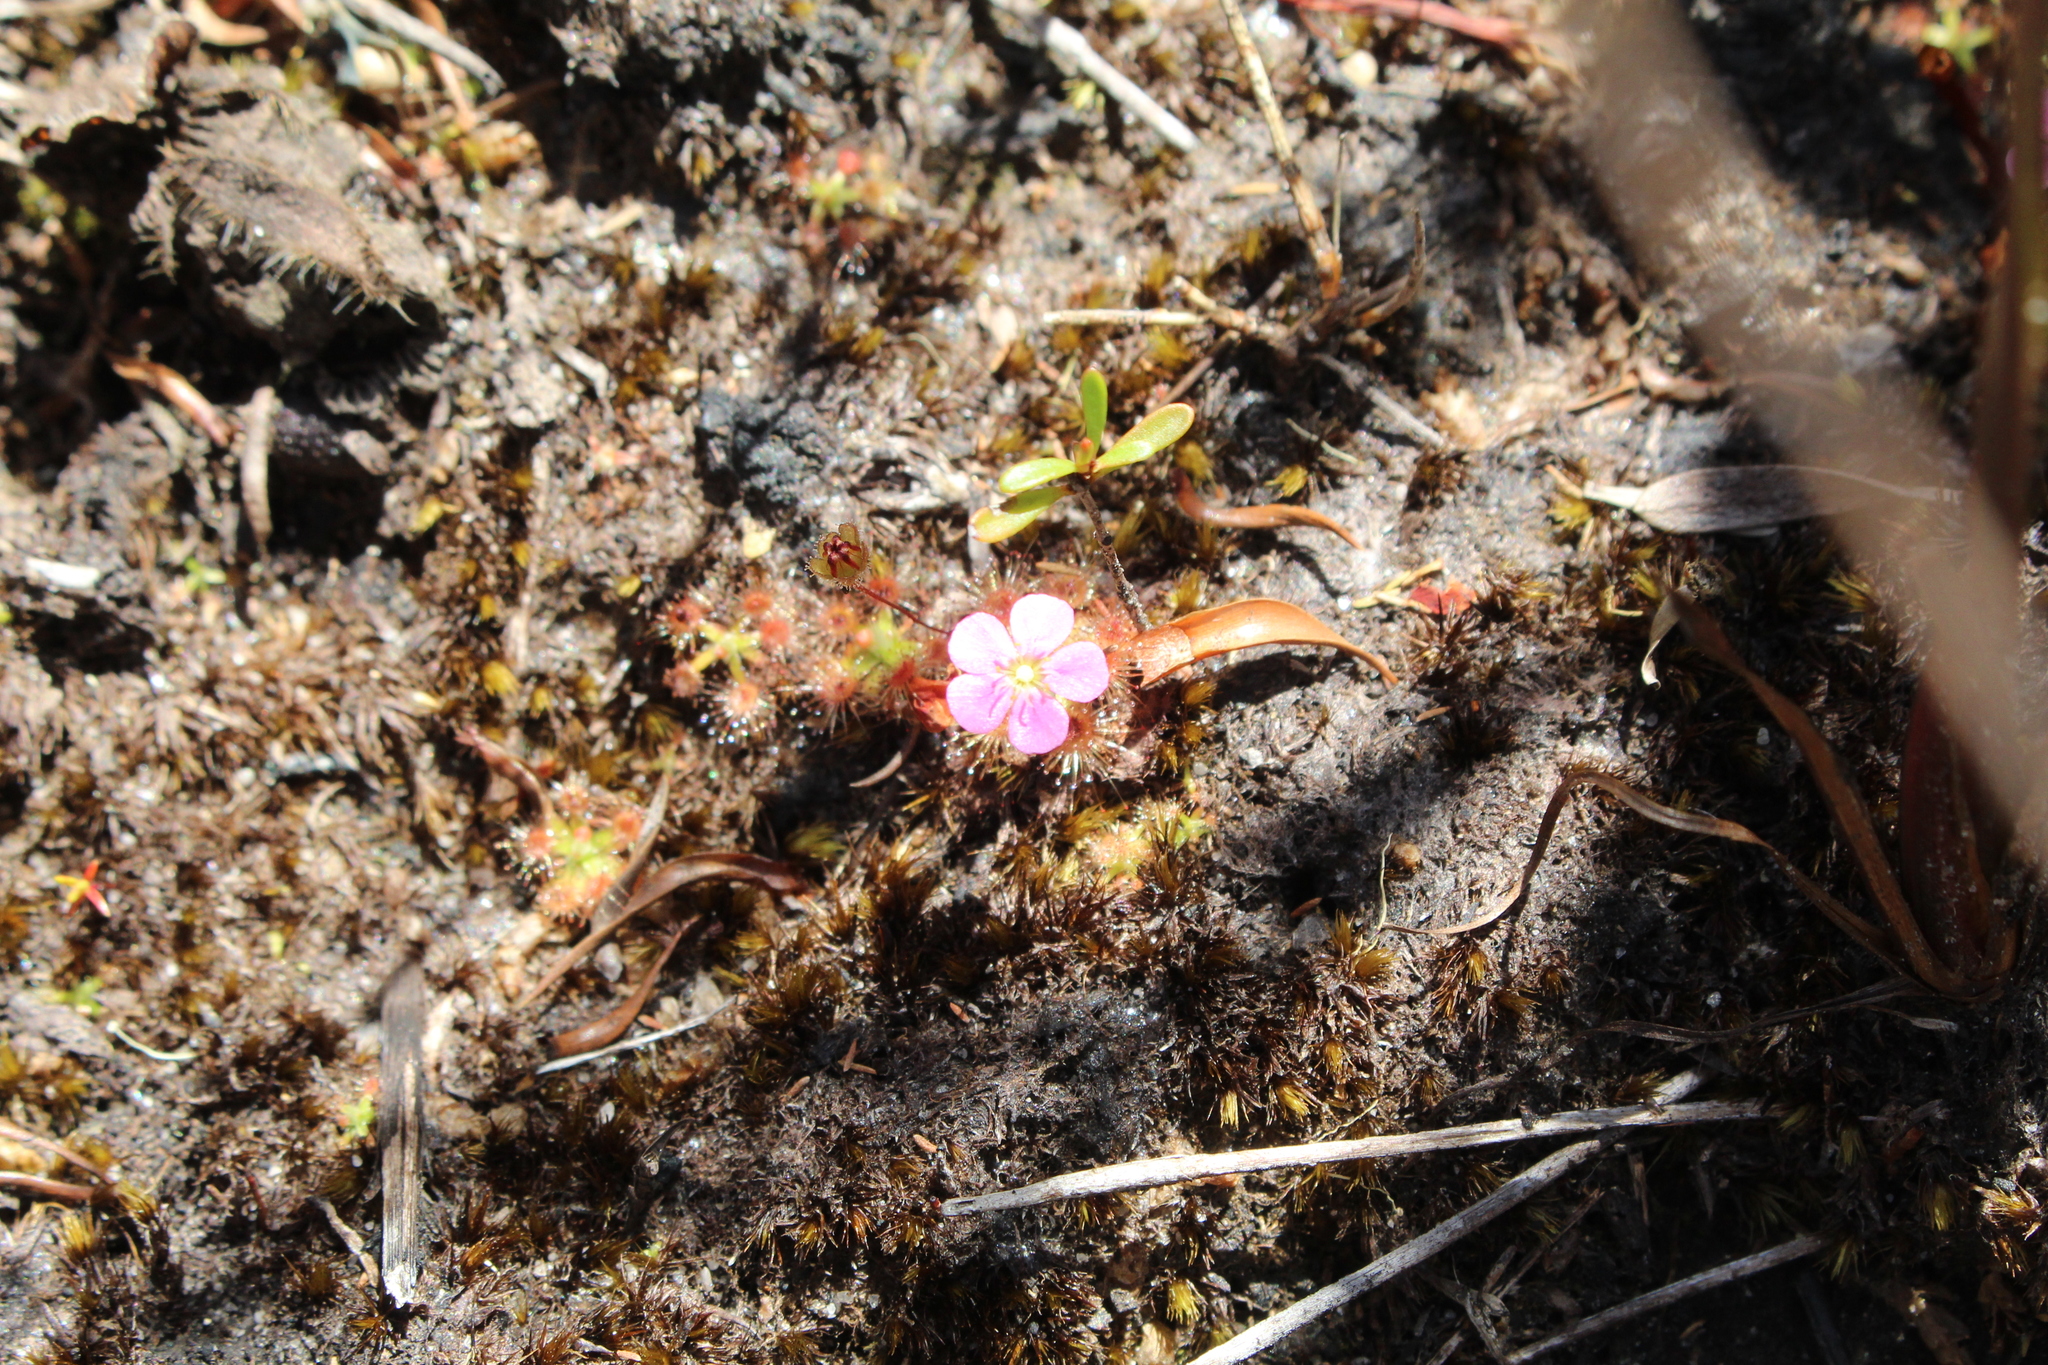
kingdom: Plantae
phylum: Tracheophyta
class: Magnoliopsida
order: Caryophyllales
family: Droseraceae
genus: Drosera
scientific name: Drosera pulchella
